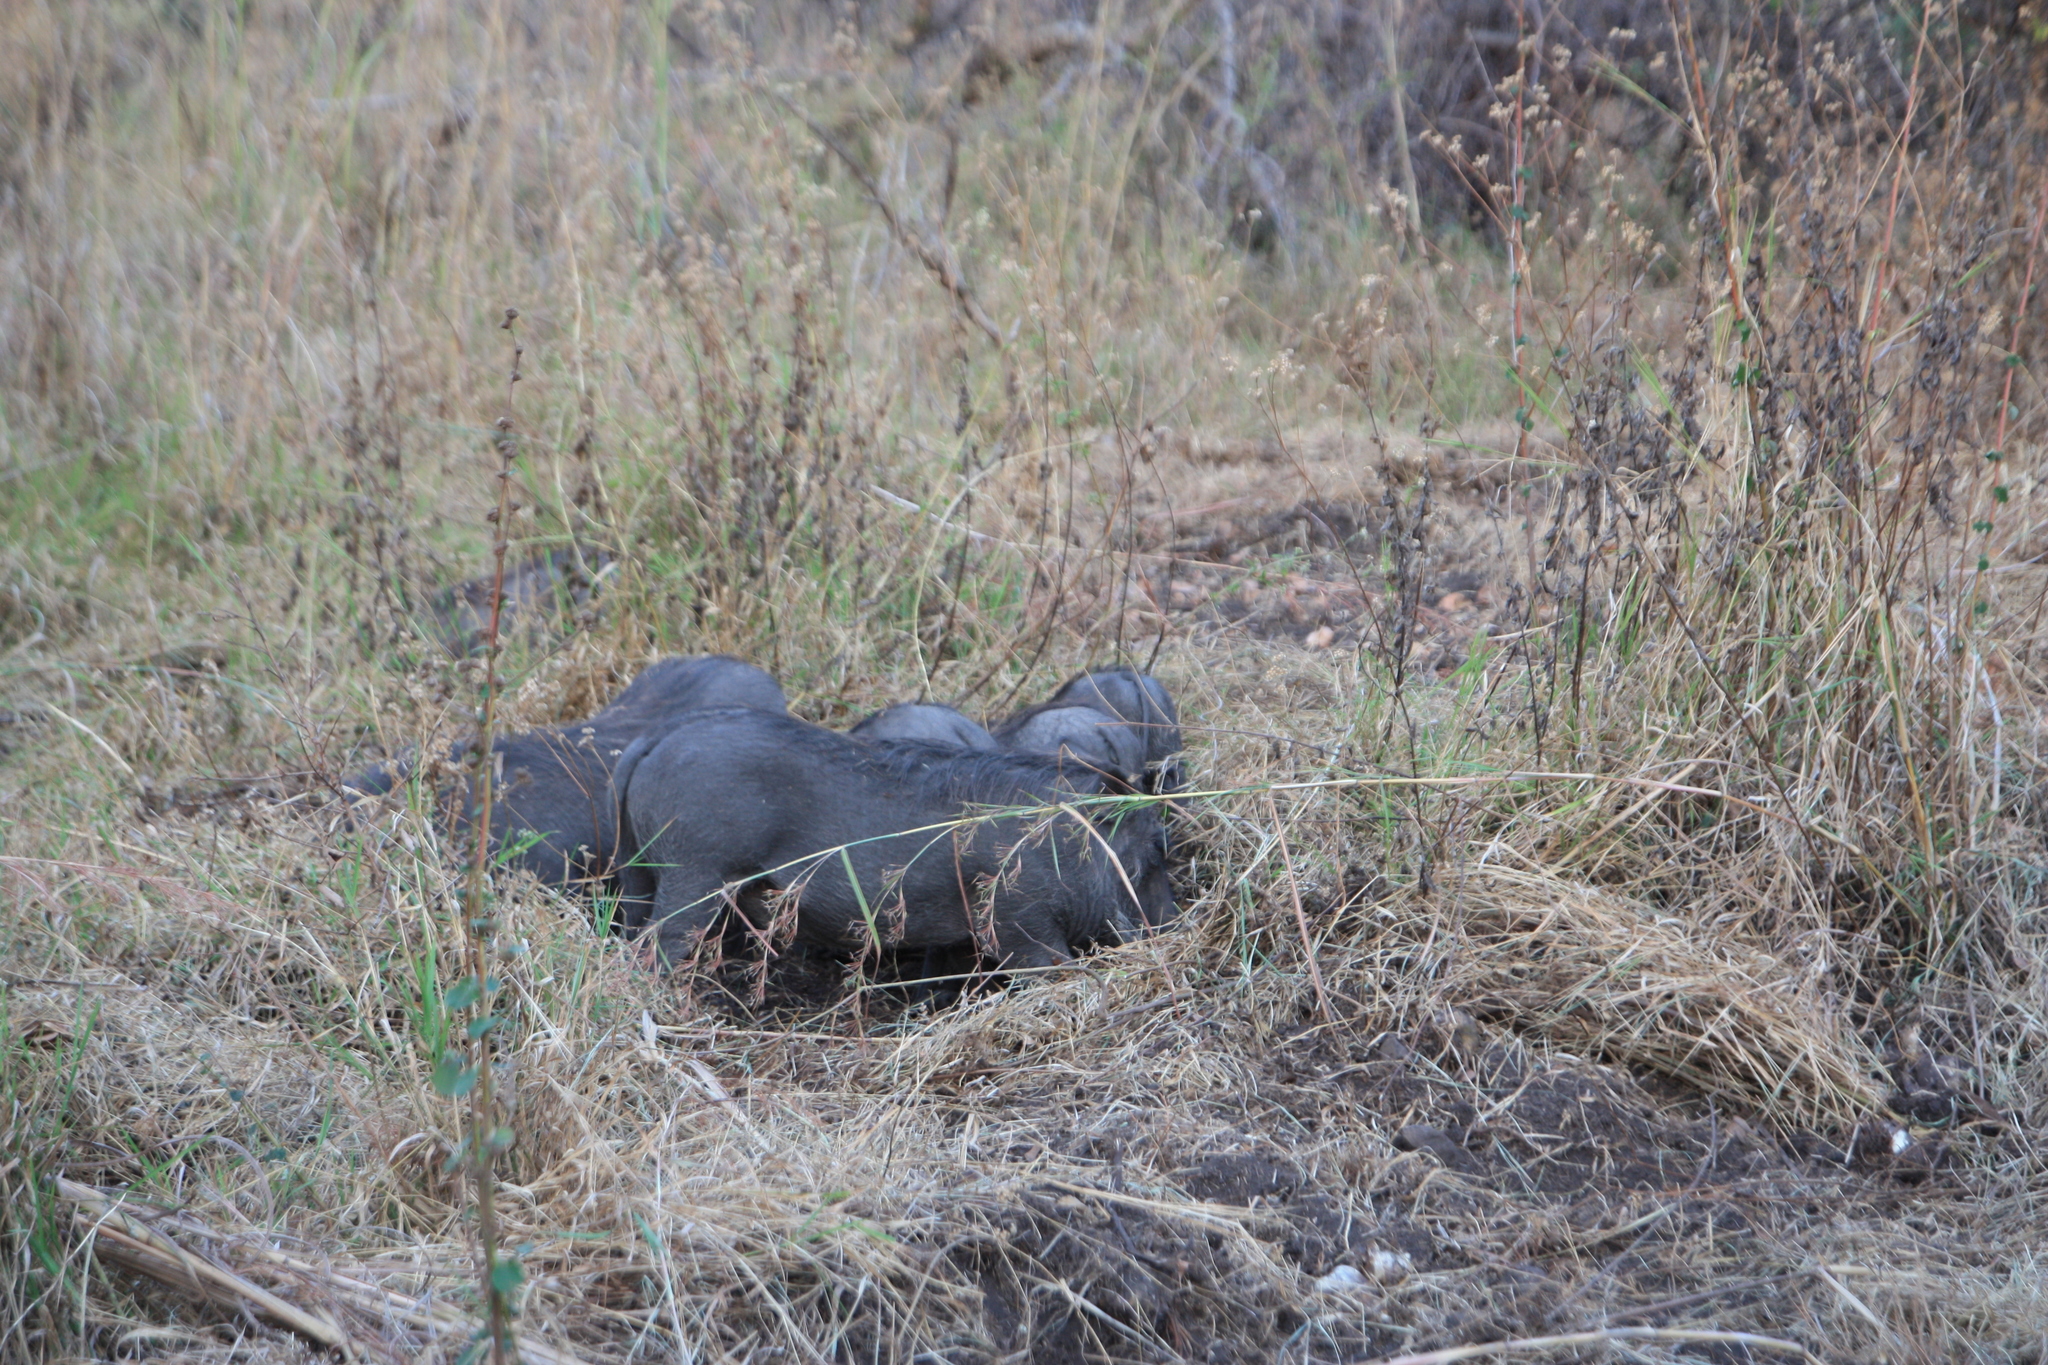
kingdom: Animalia
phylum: Chordata
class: Mammalia
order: Artiodactyla
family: Suidae
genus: Phacochoerus
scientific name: Phacochoerus africanus
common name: Common warthog
